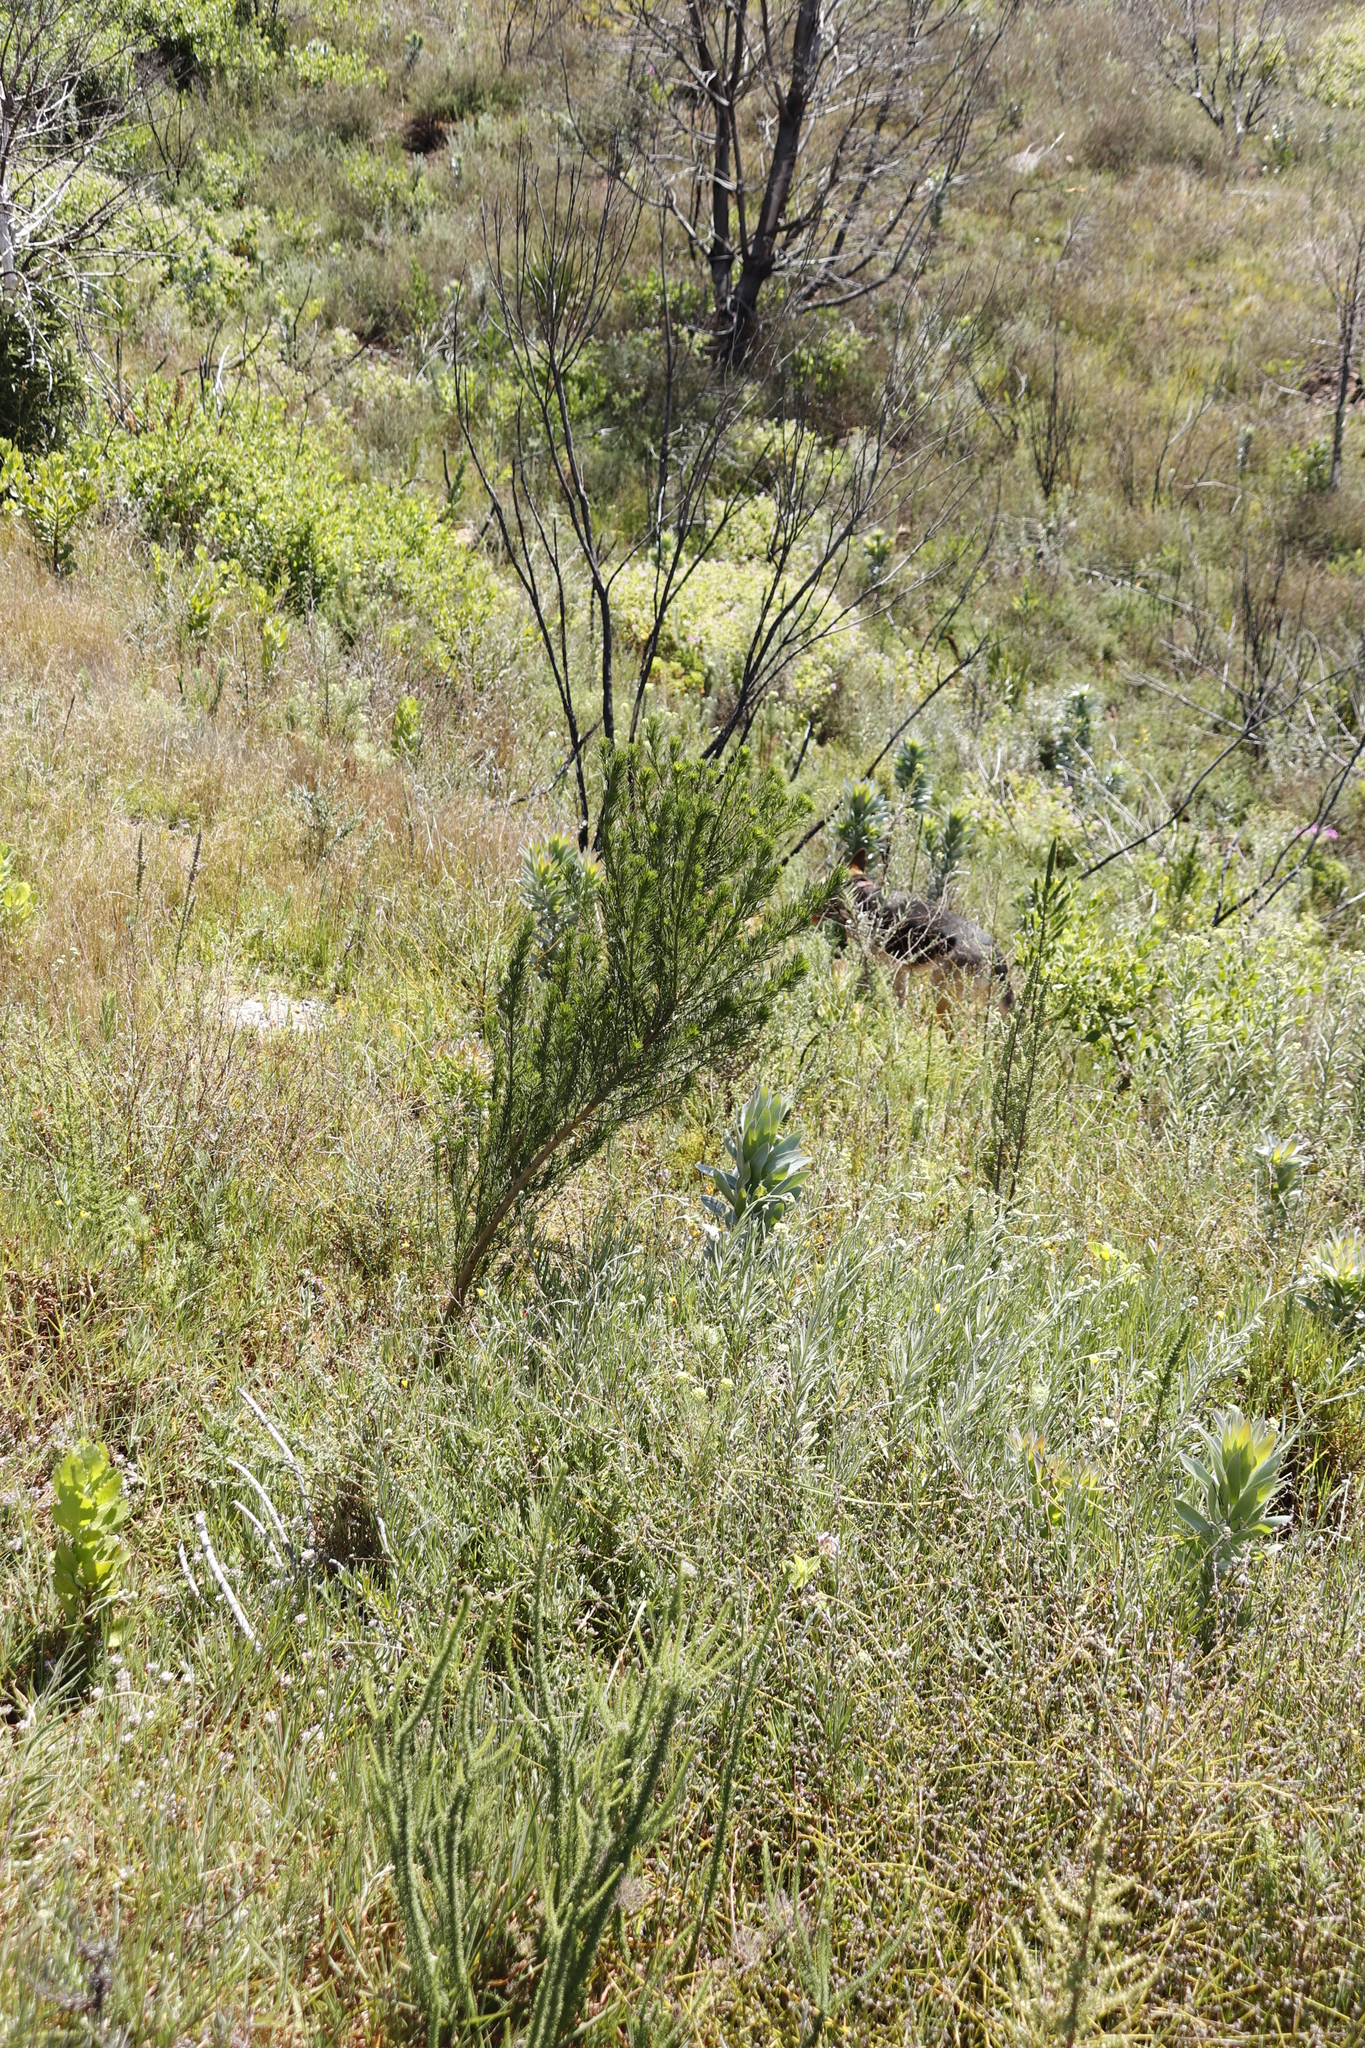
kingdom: Plantae
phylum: Tracheophyta
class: Magnoliopsida
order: Fabales
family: Fabaceae
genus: Psoralea
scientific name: Psoralea pinnata
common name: African scurfpea
